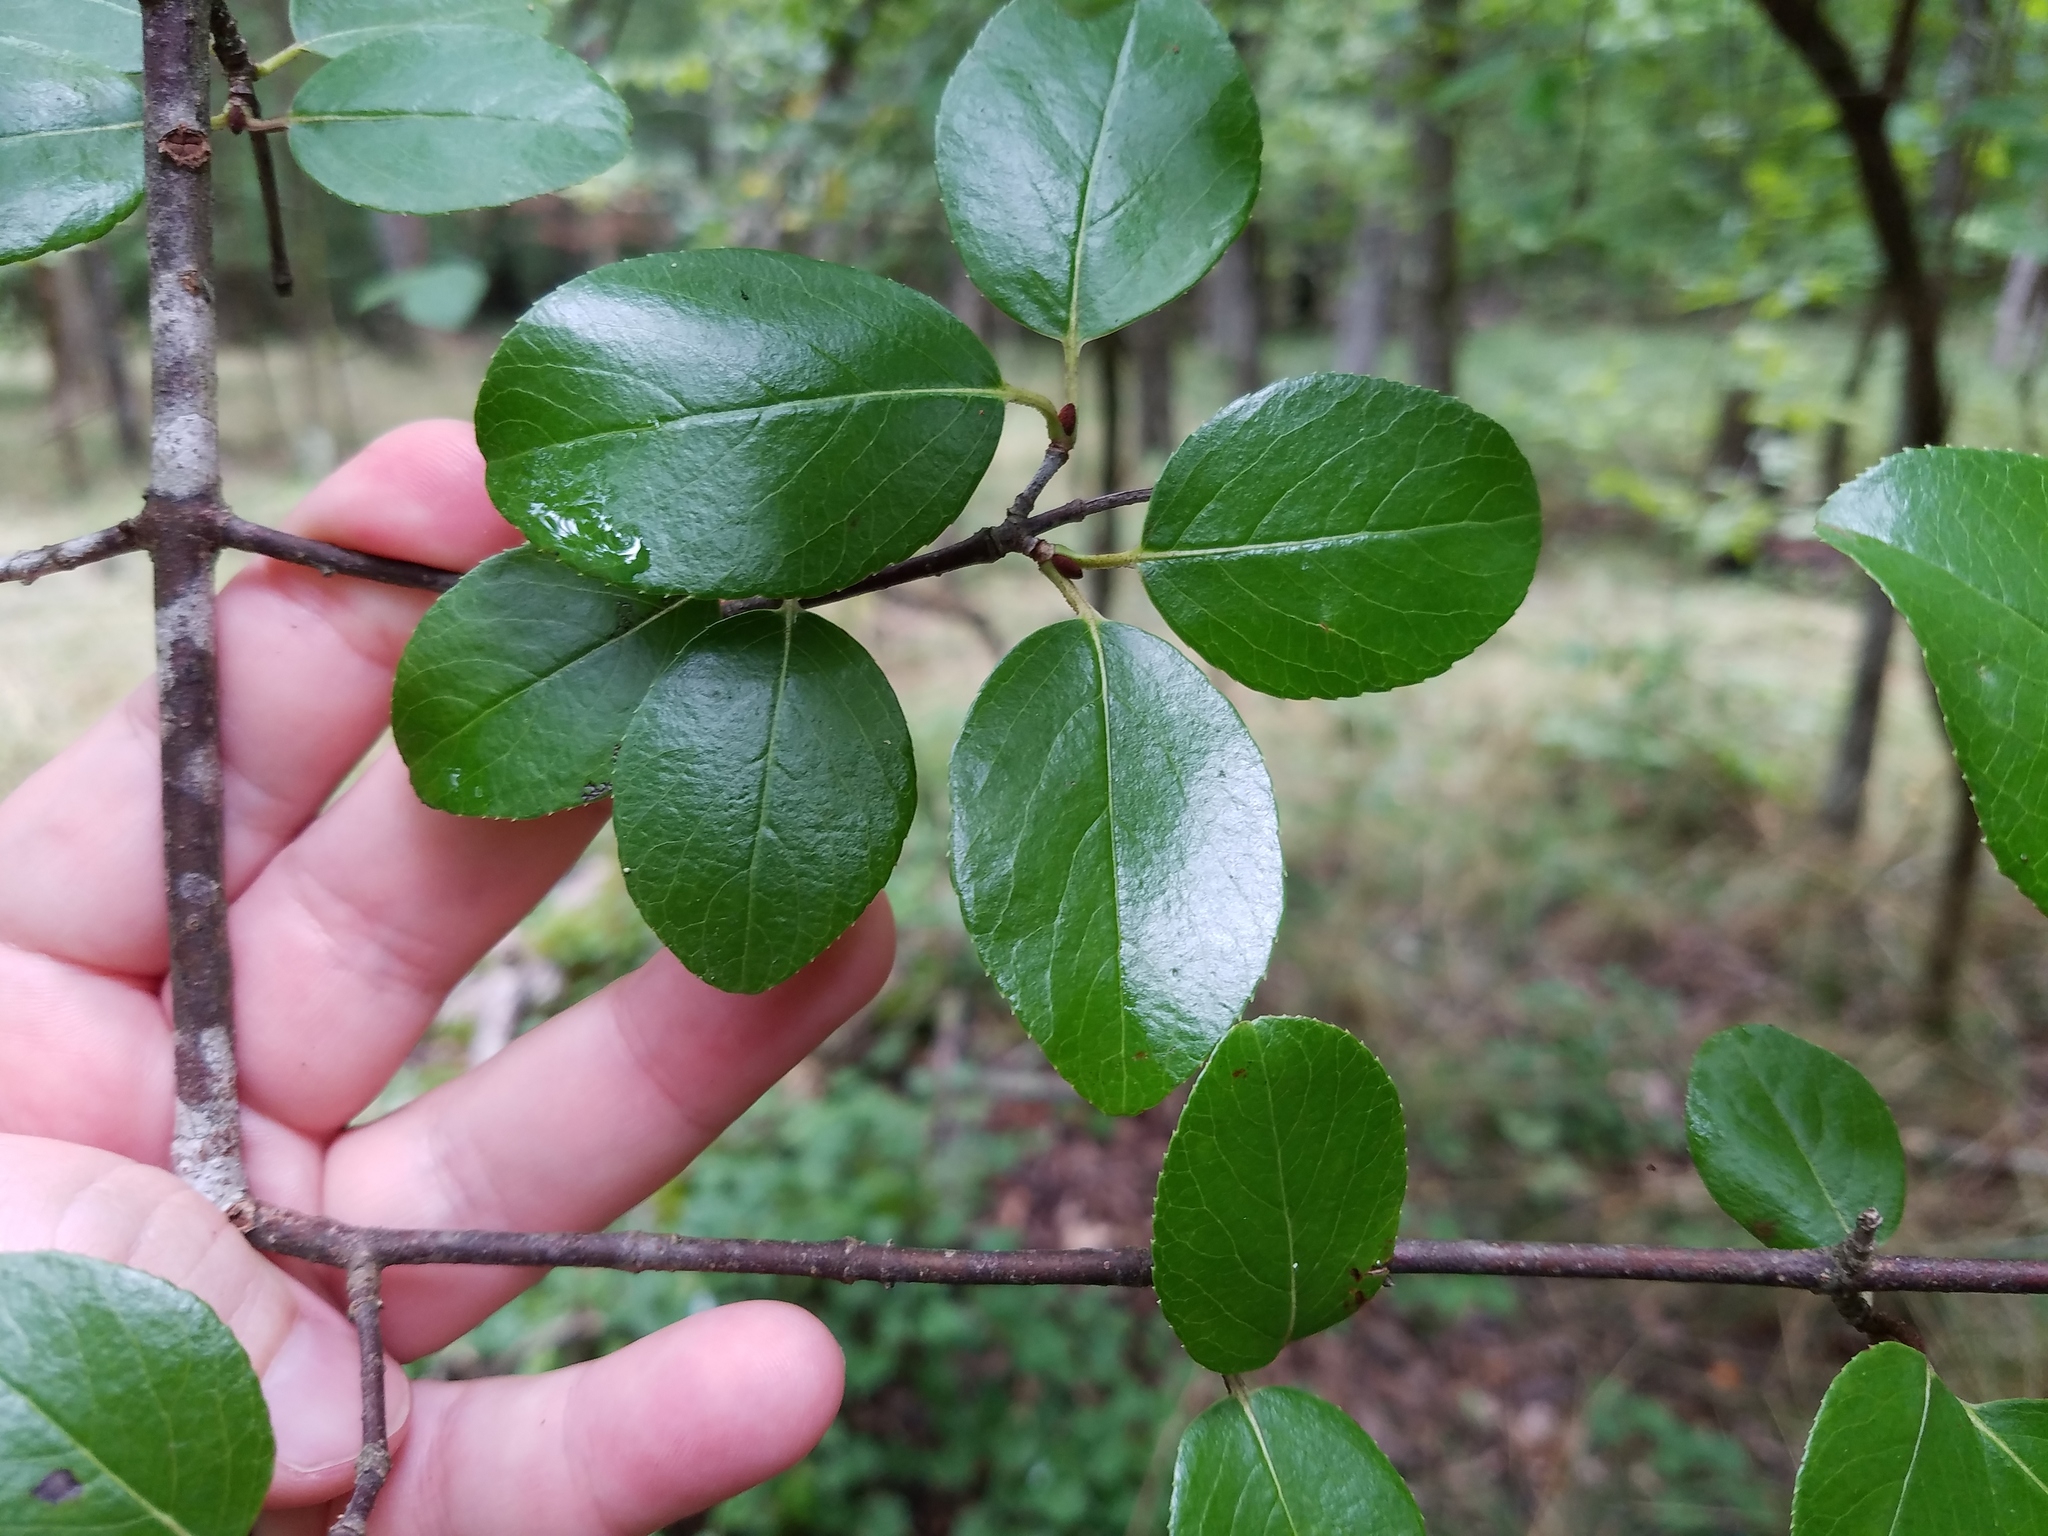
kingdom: Plantae
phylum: Tracheophyta
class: Magnoliopsida
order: Dipsacales
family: Viburnaceae
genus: Viburnum
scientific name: Viburnum rufidulum
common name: Blue haw
